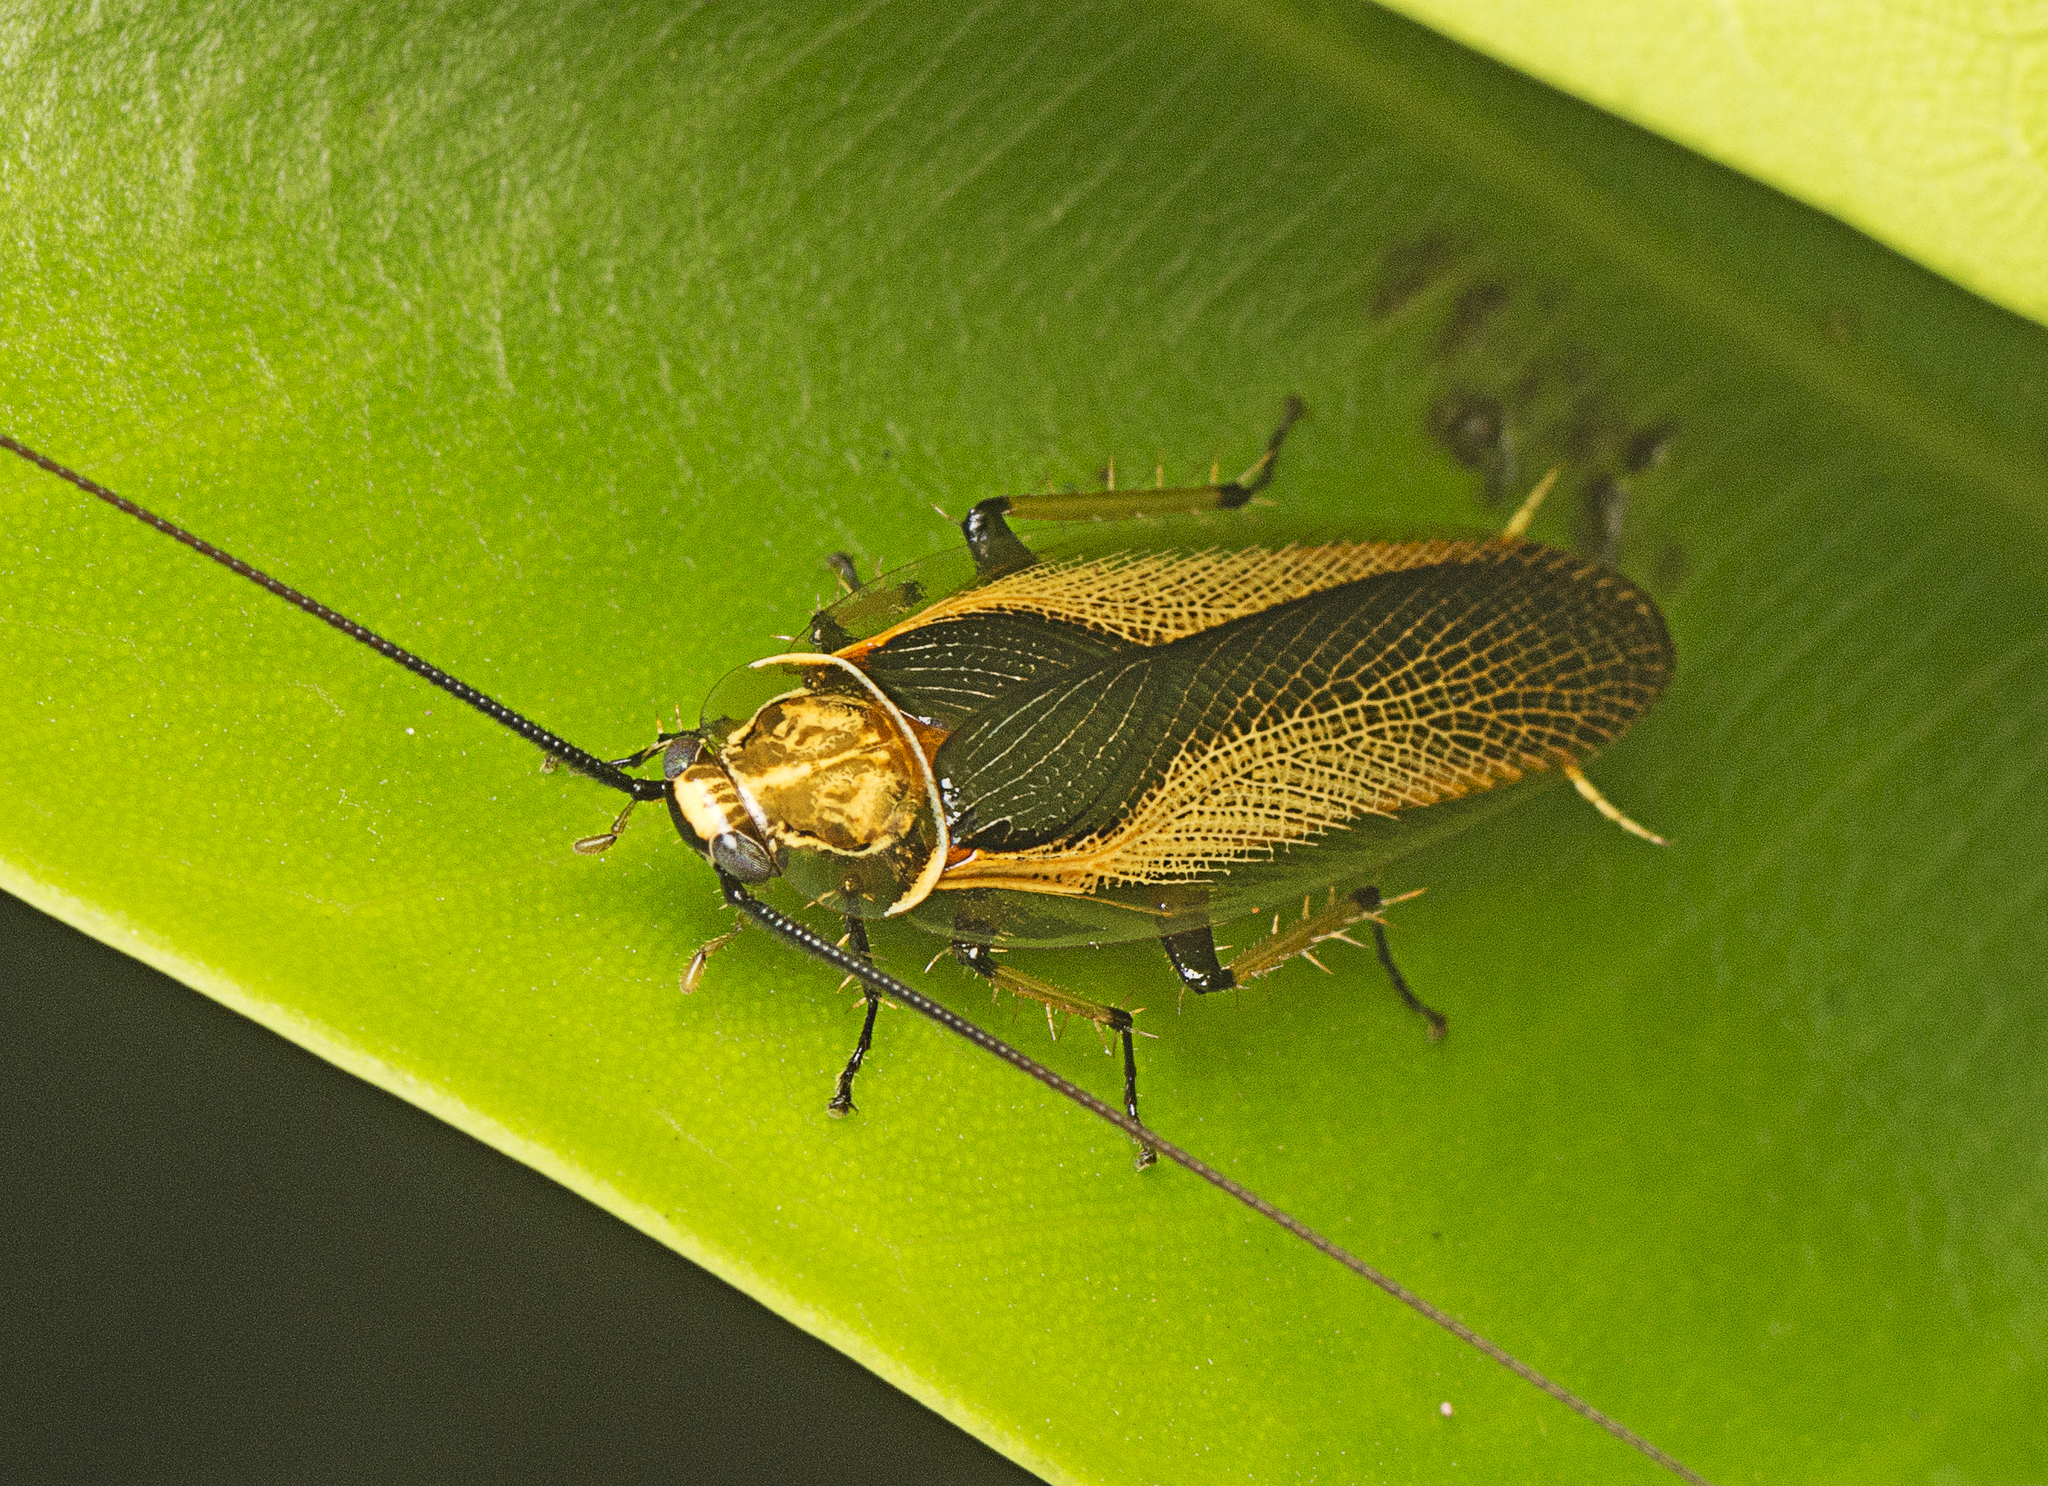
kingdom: Animalia
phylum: Arthropoda
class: Insecta
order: Blattodea
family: Ectobiidae
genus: Ellipsidion
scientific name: Ellipsidion bicolor
